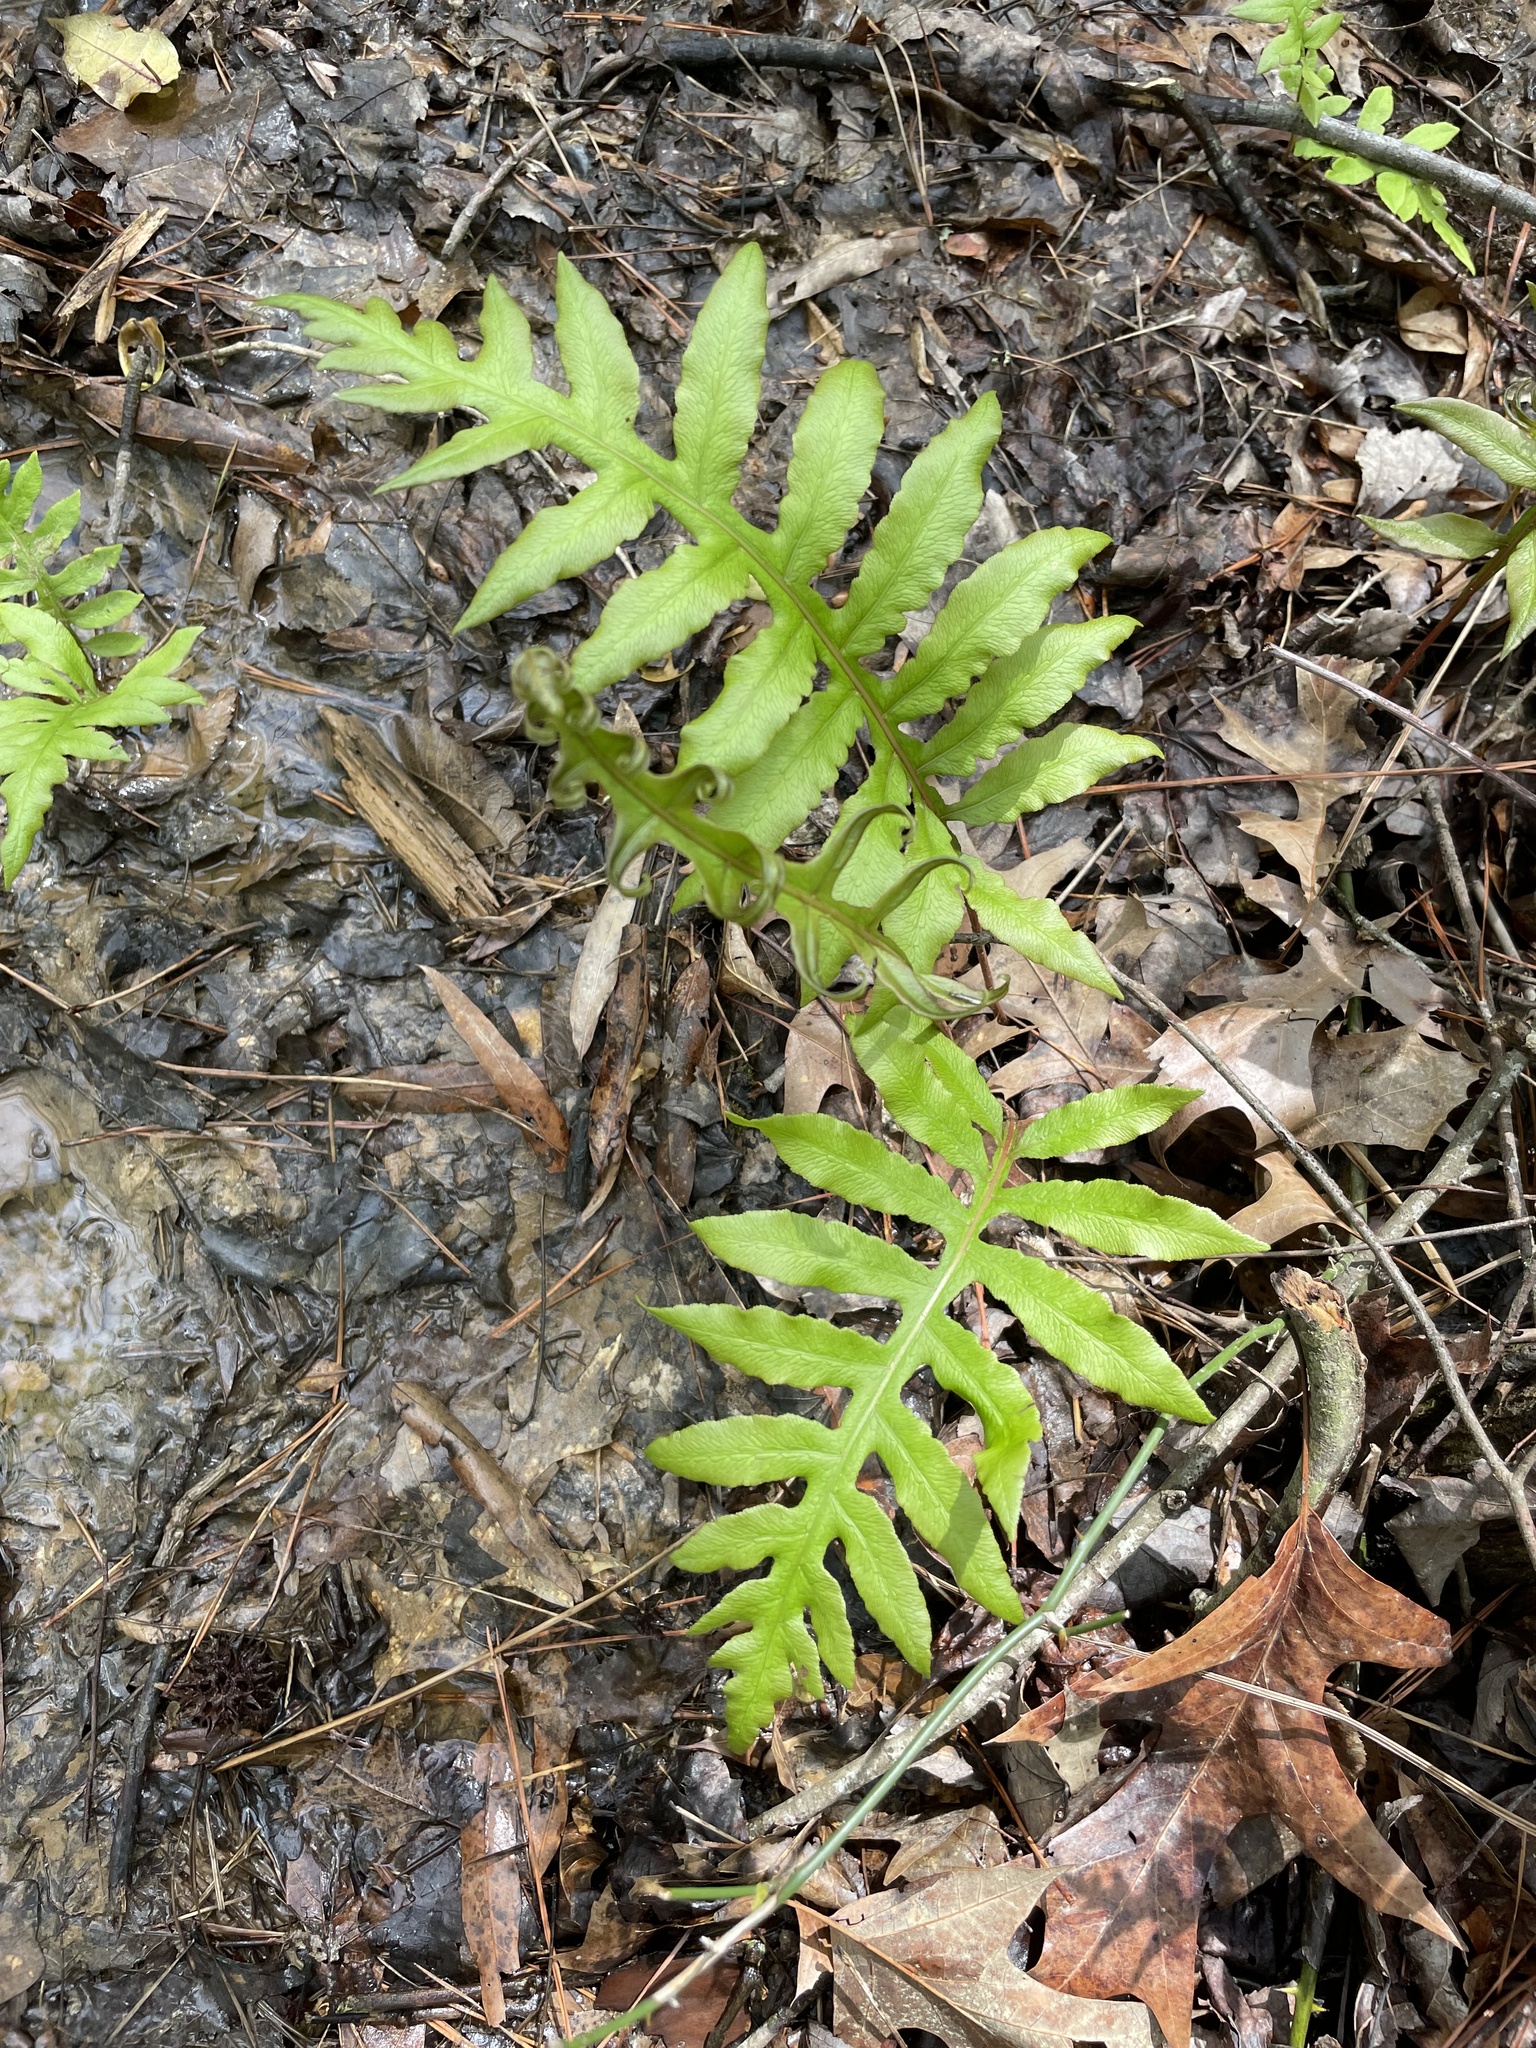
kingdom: Plantae
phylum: Tracheophyta
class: Polypodiopsida
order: Polypodiales
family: Blechnaceae
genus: Lorinseria
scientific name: Lorinseria areolata
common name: Dwarf chain fern
